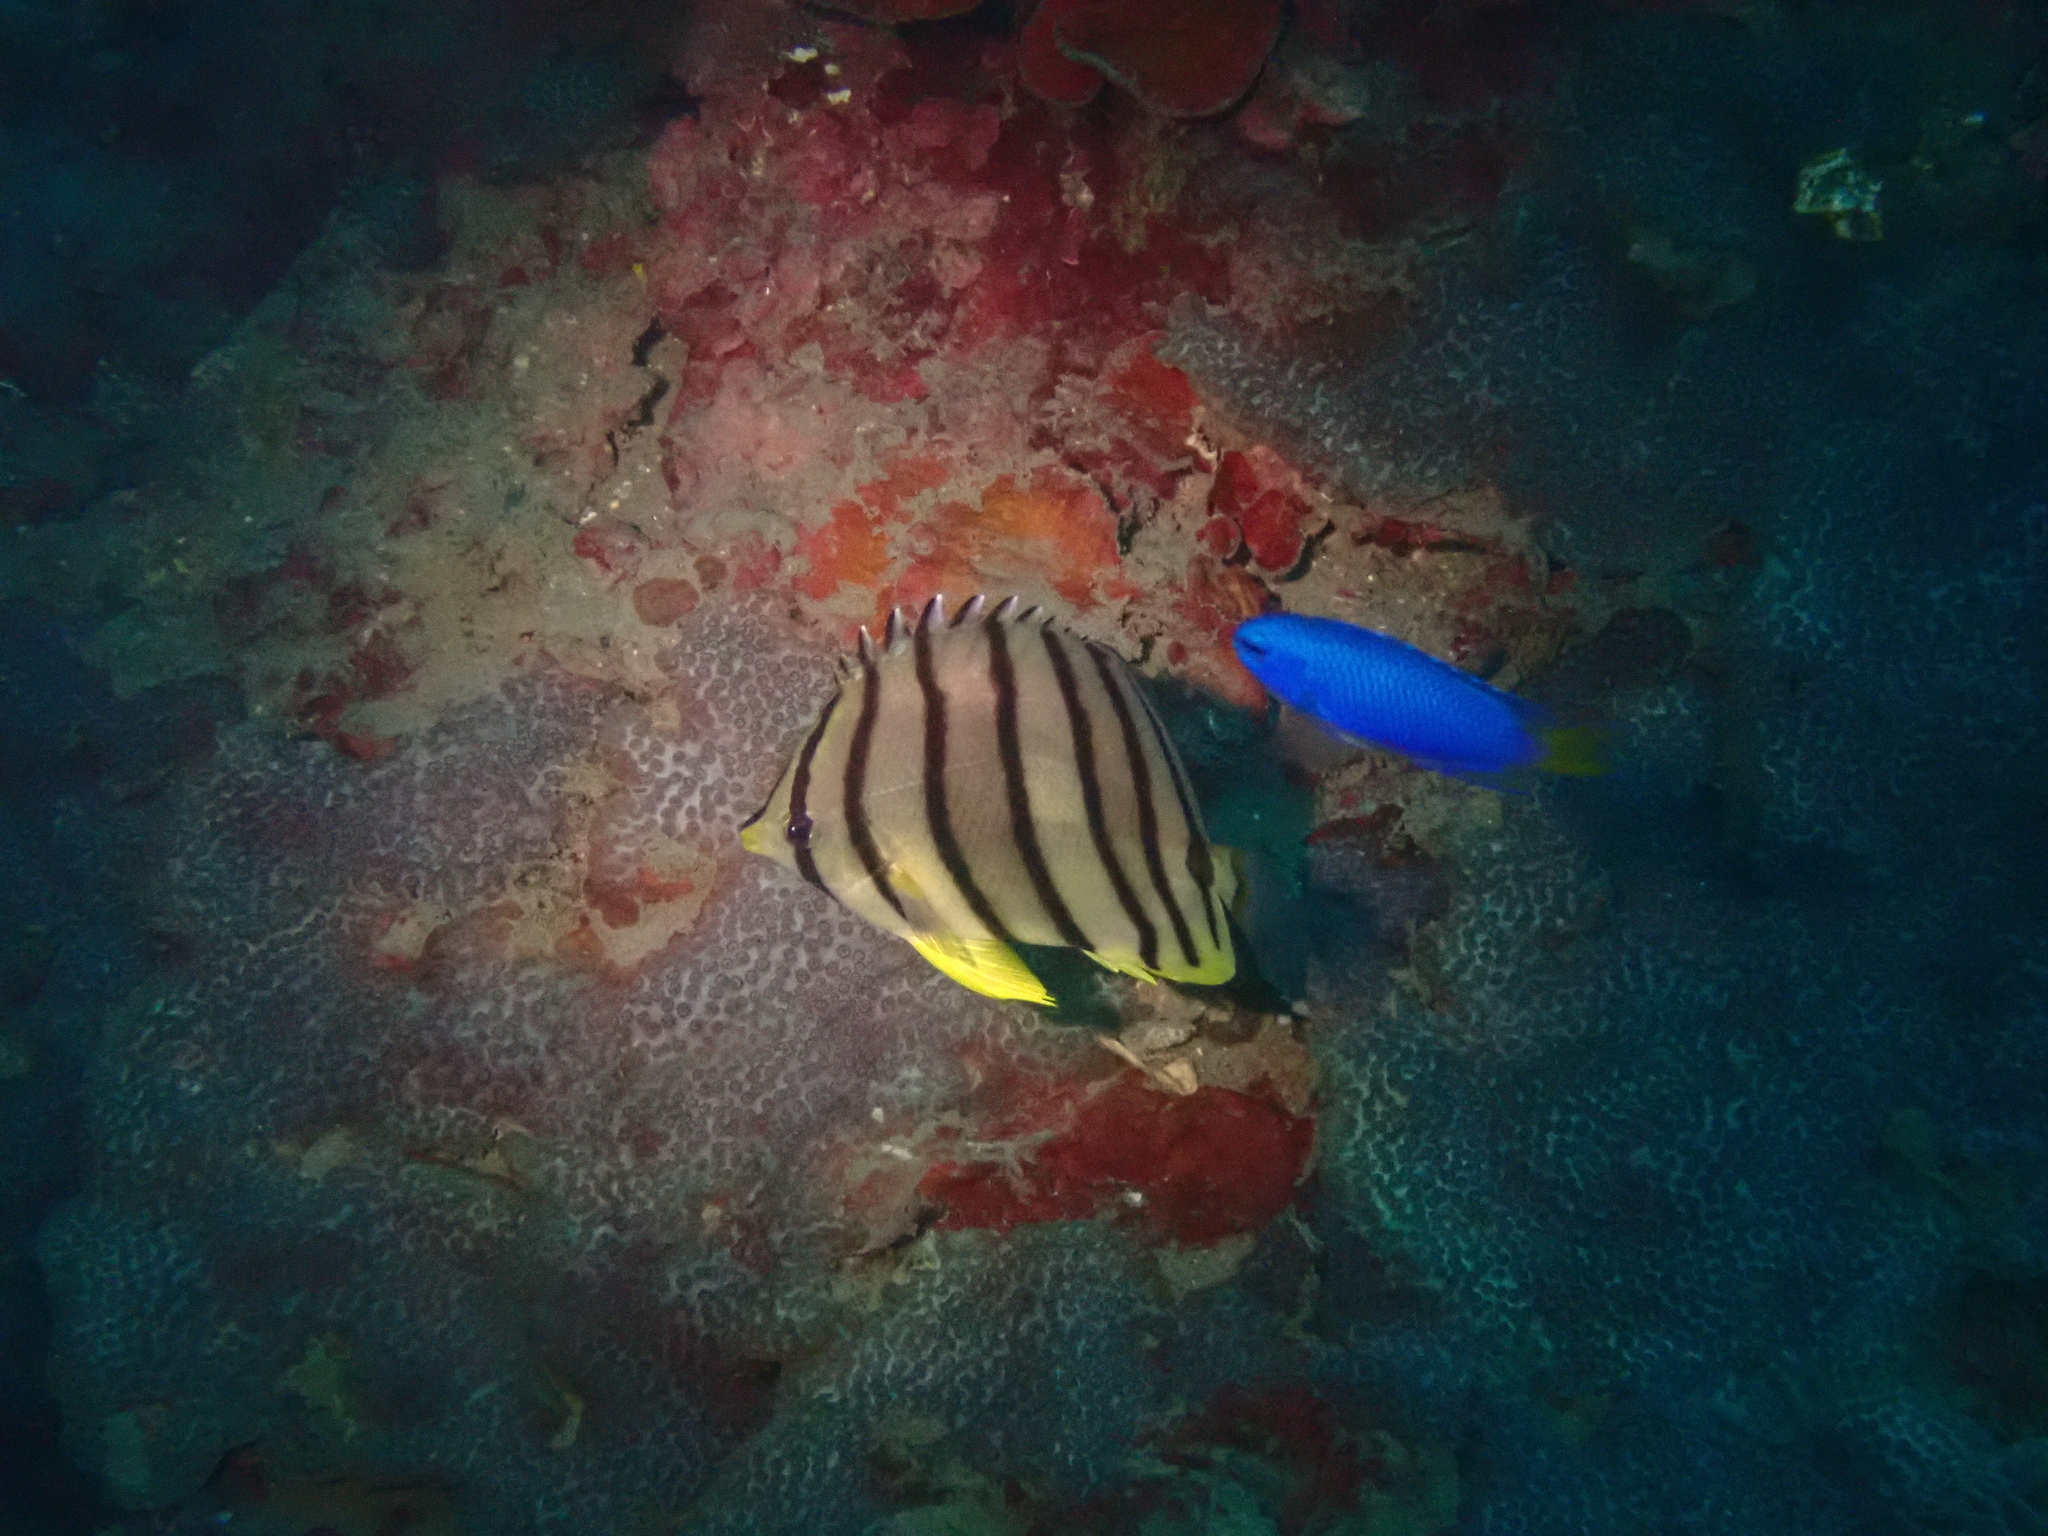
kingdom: Animalia
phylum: Chordata
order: Perciformes
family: Chaetodontidae
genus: Chaetodon
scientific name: Chaetodon octofasciatus
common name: Eightband butterflyfish
